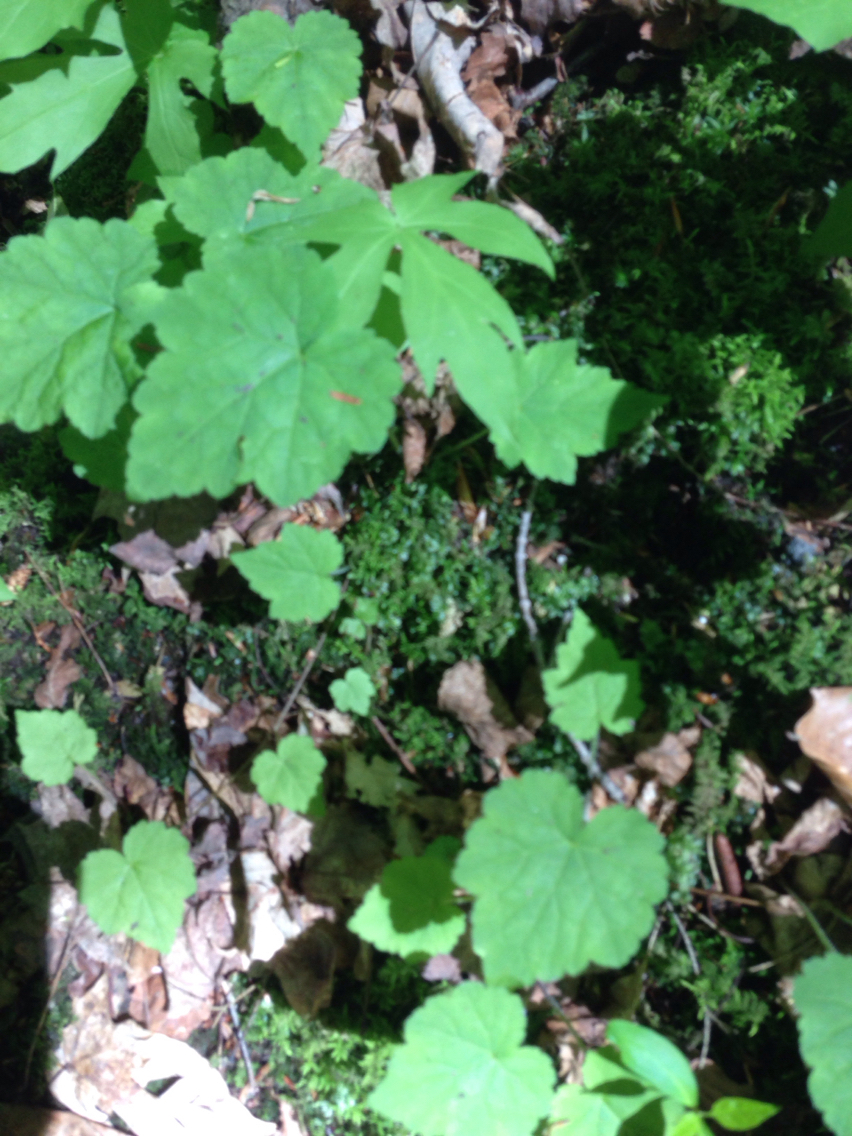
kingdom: Plantae
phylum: Tracheophyta
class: Magnoliopsida
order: Saxifragales
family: Saxifragaceae
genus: Tiarella
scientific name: Tiarella stolonifera
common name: Stoloniferous foamflower
